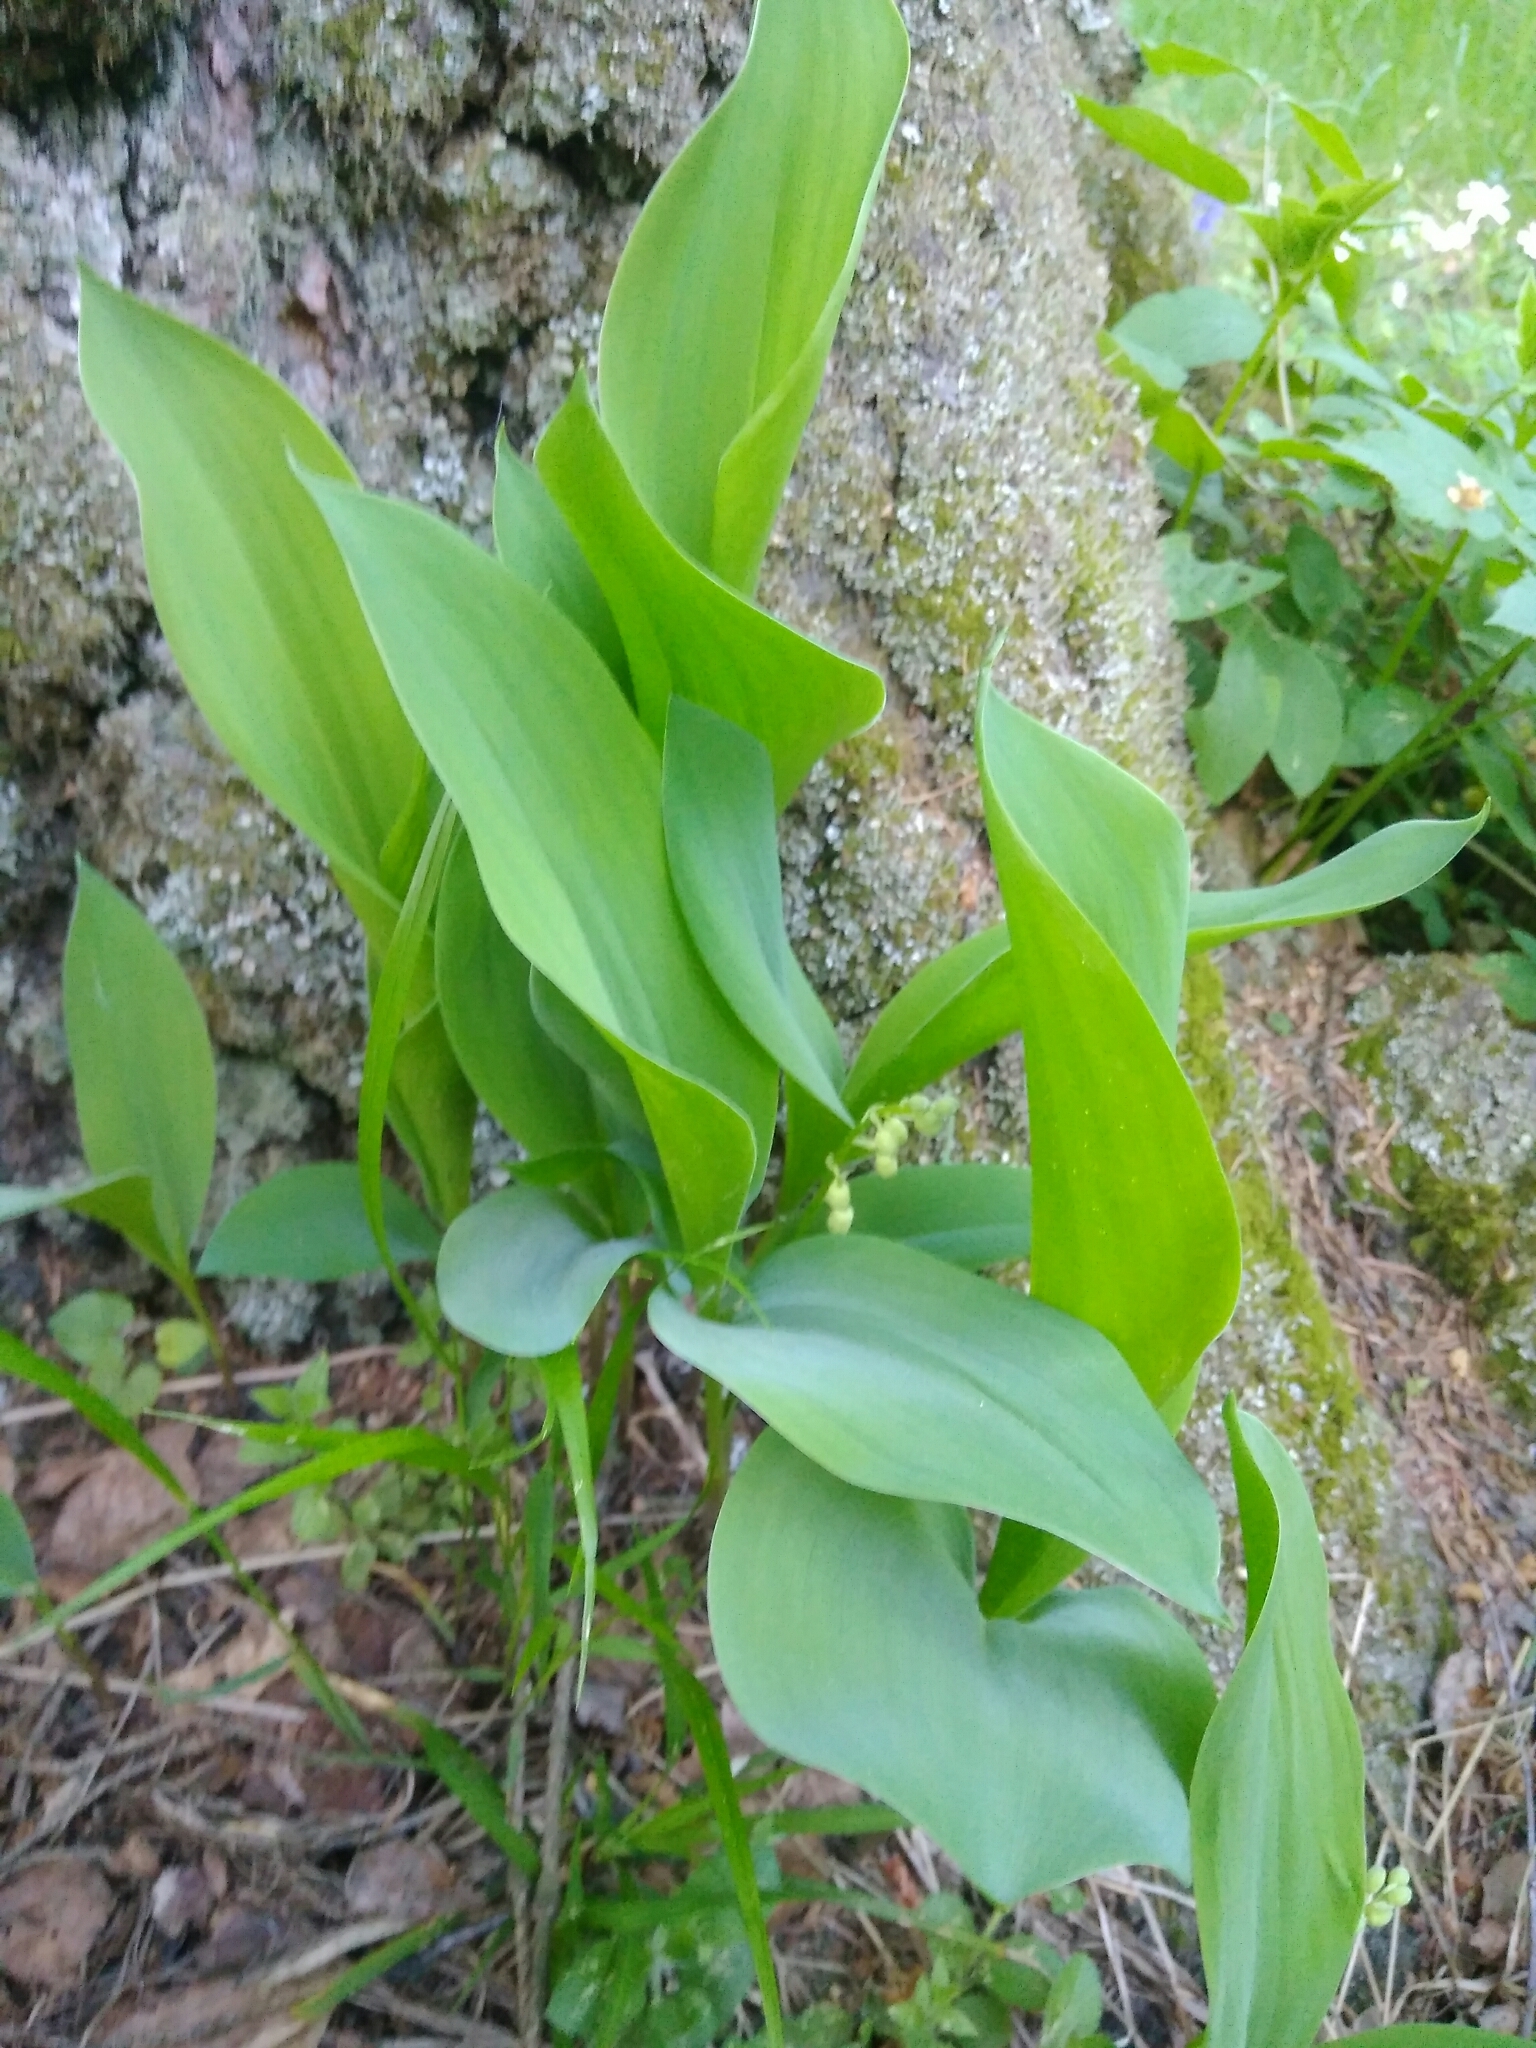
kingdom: Plantae
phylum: Tracheophyta
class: Liliopsida
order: Asparagales
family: Asparagaceae
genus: Convallaria
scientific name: Convallaria majalis
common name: Lily-of-the-valley
